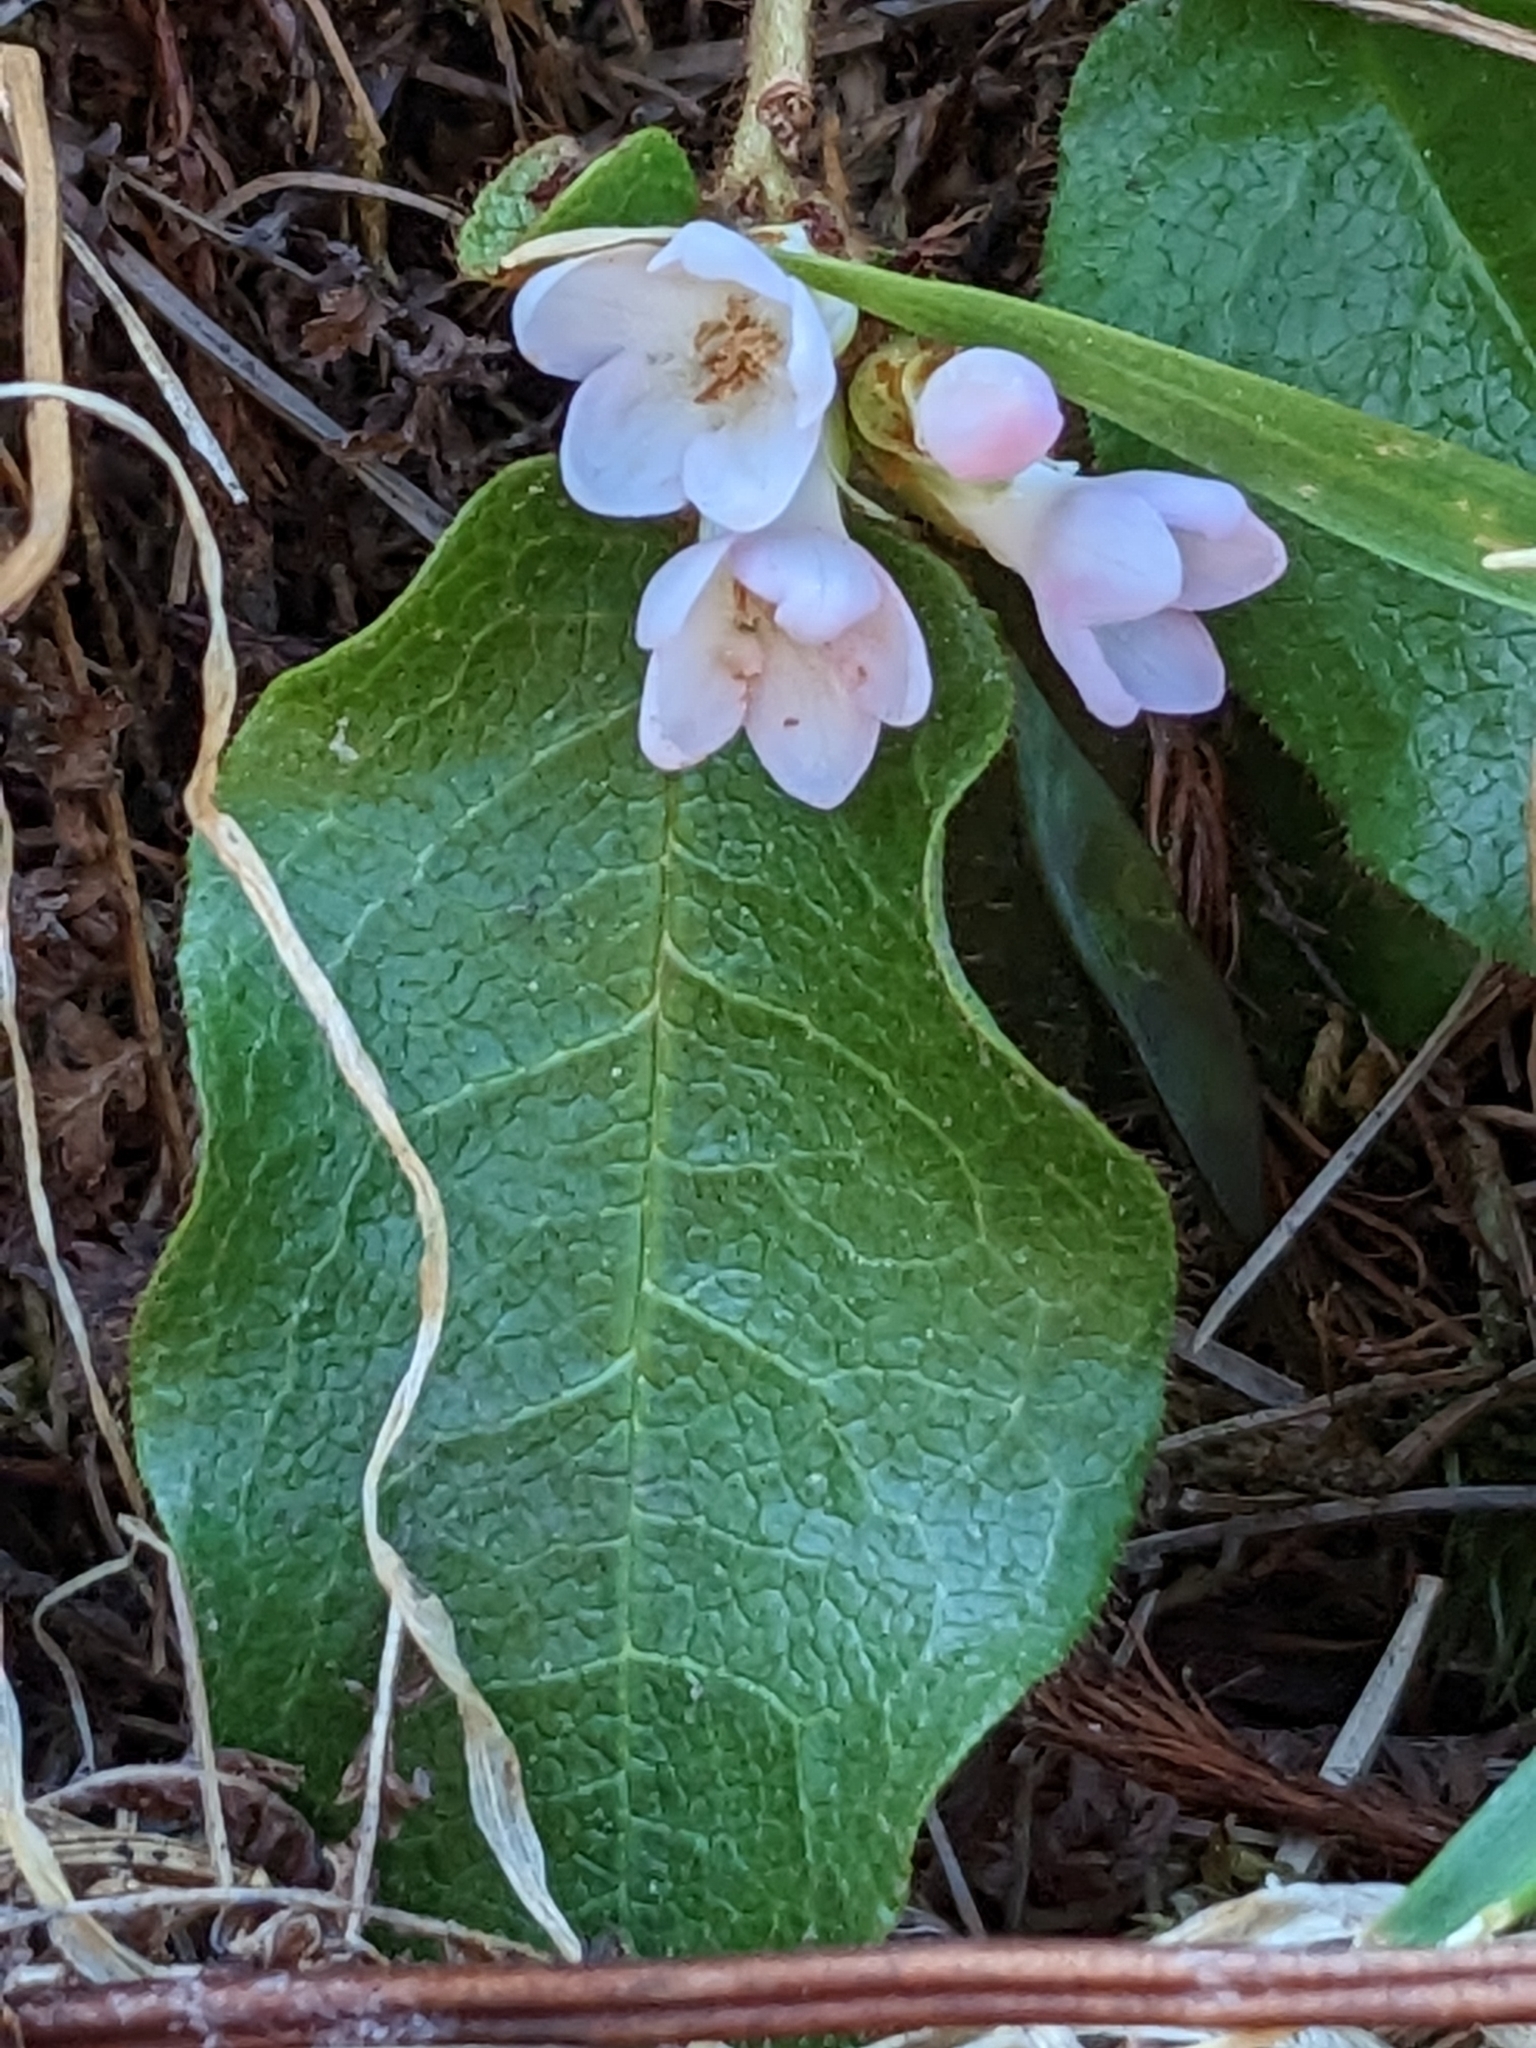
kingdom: Plantae
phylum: Tracheophyta
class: Magnoliopsida
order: Ericales
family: Ericaceae
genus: Epigaea
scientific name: Epigaea repens
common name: Gravelroot
